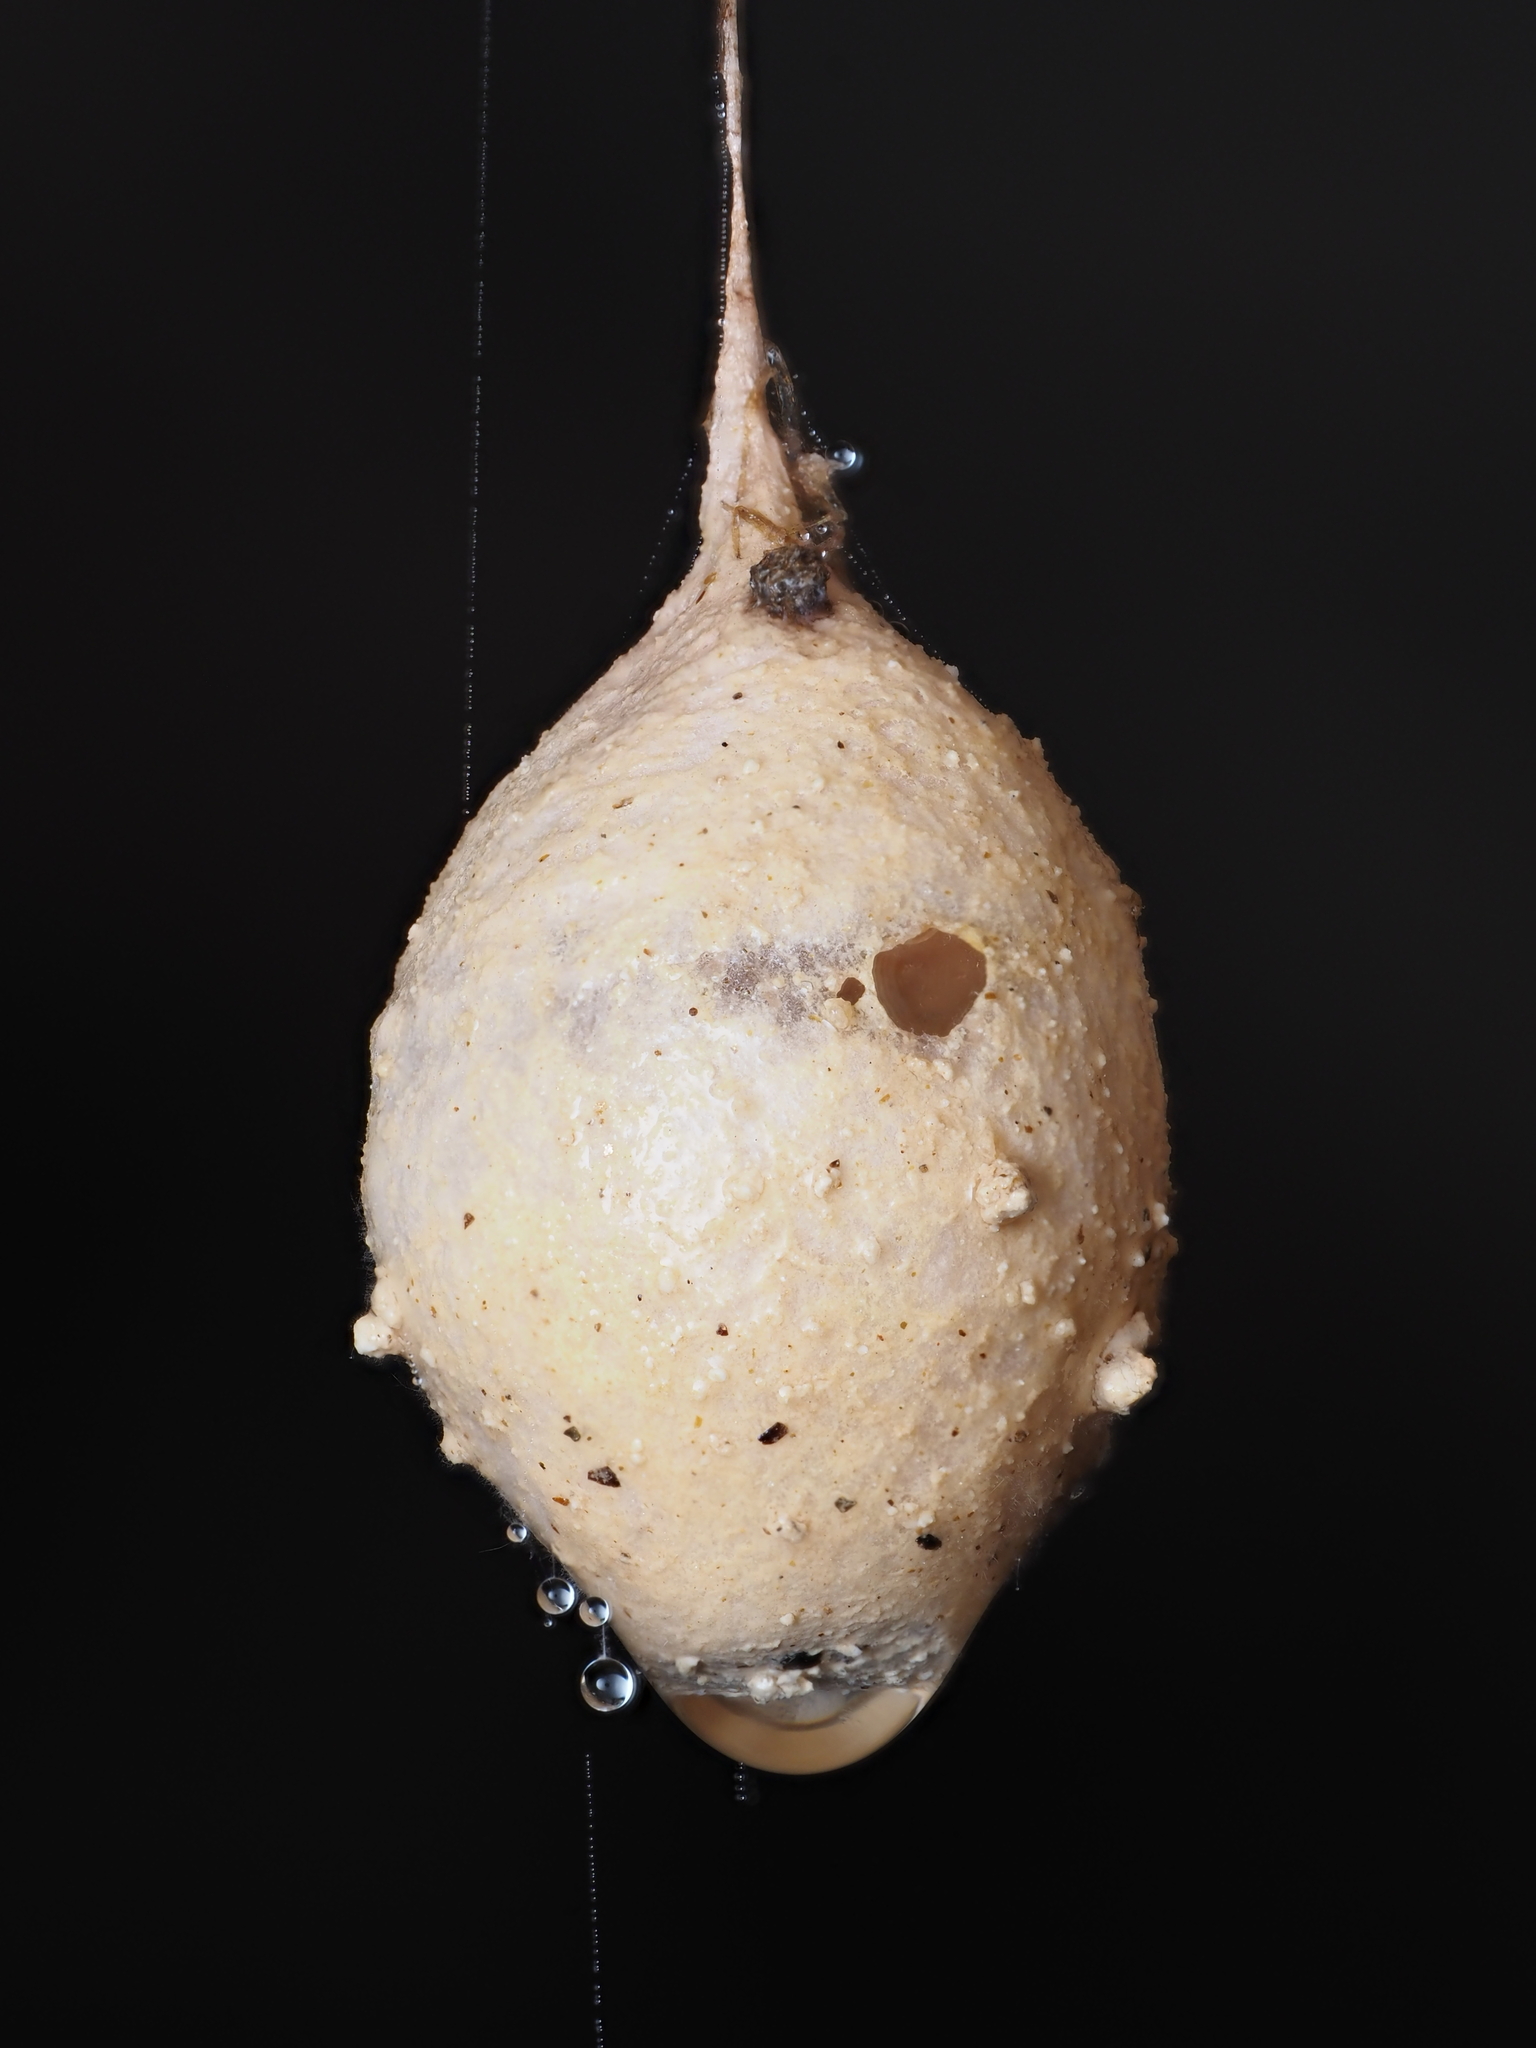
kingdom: Animalia
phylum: Arthropoda
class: Arachnida
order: Araneae
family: Gradungulidae
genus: Spelungula
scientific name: Spelungula cavernicola
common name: Nelson cave spider
